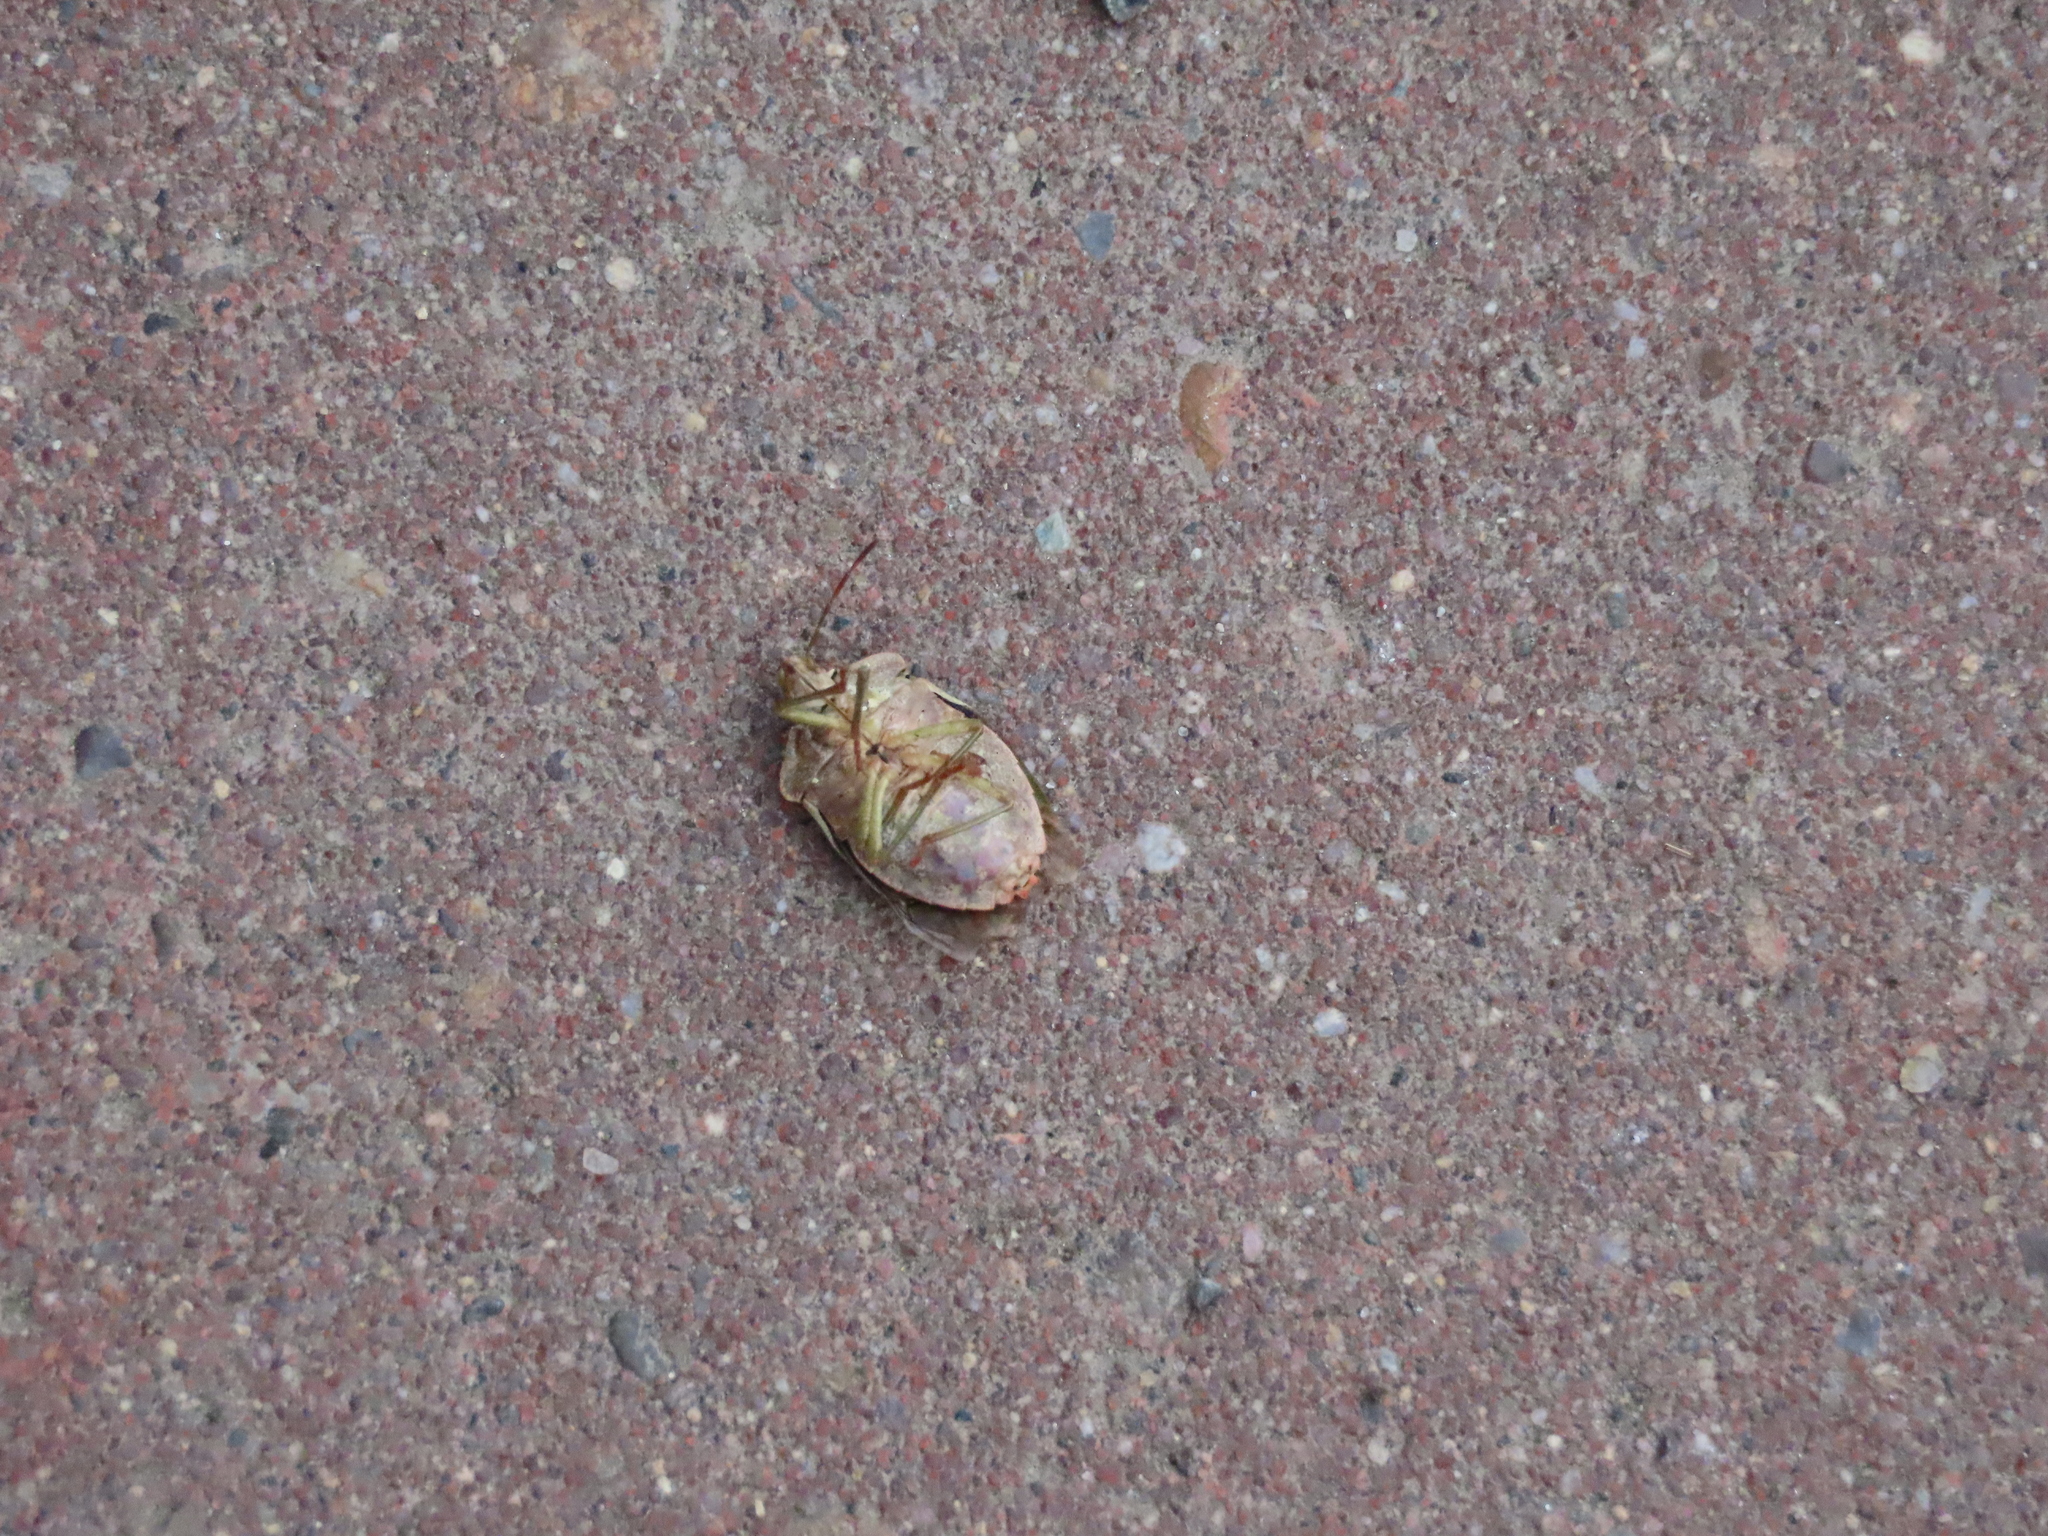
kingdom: Animalia
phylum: Arthropoda
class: Insecta
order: Hemiptera
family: Pentatomidae
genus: Palomena
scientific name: Palomena prasina
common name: Green shieldbug
